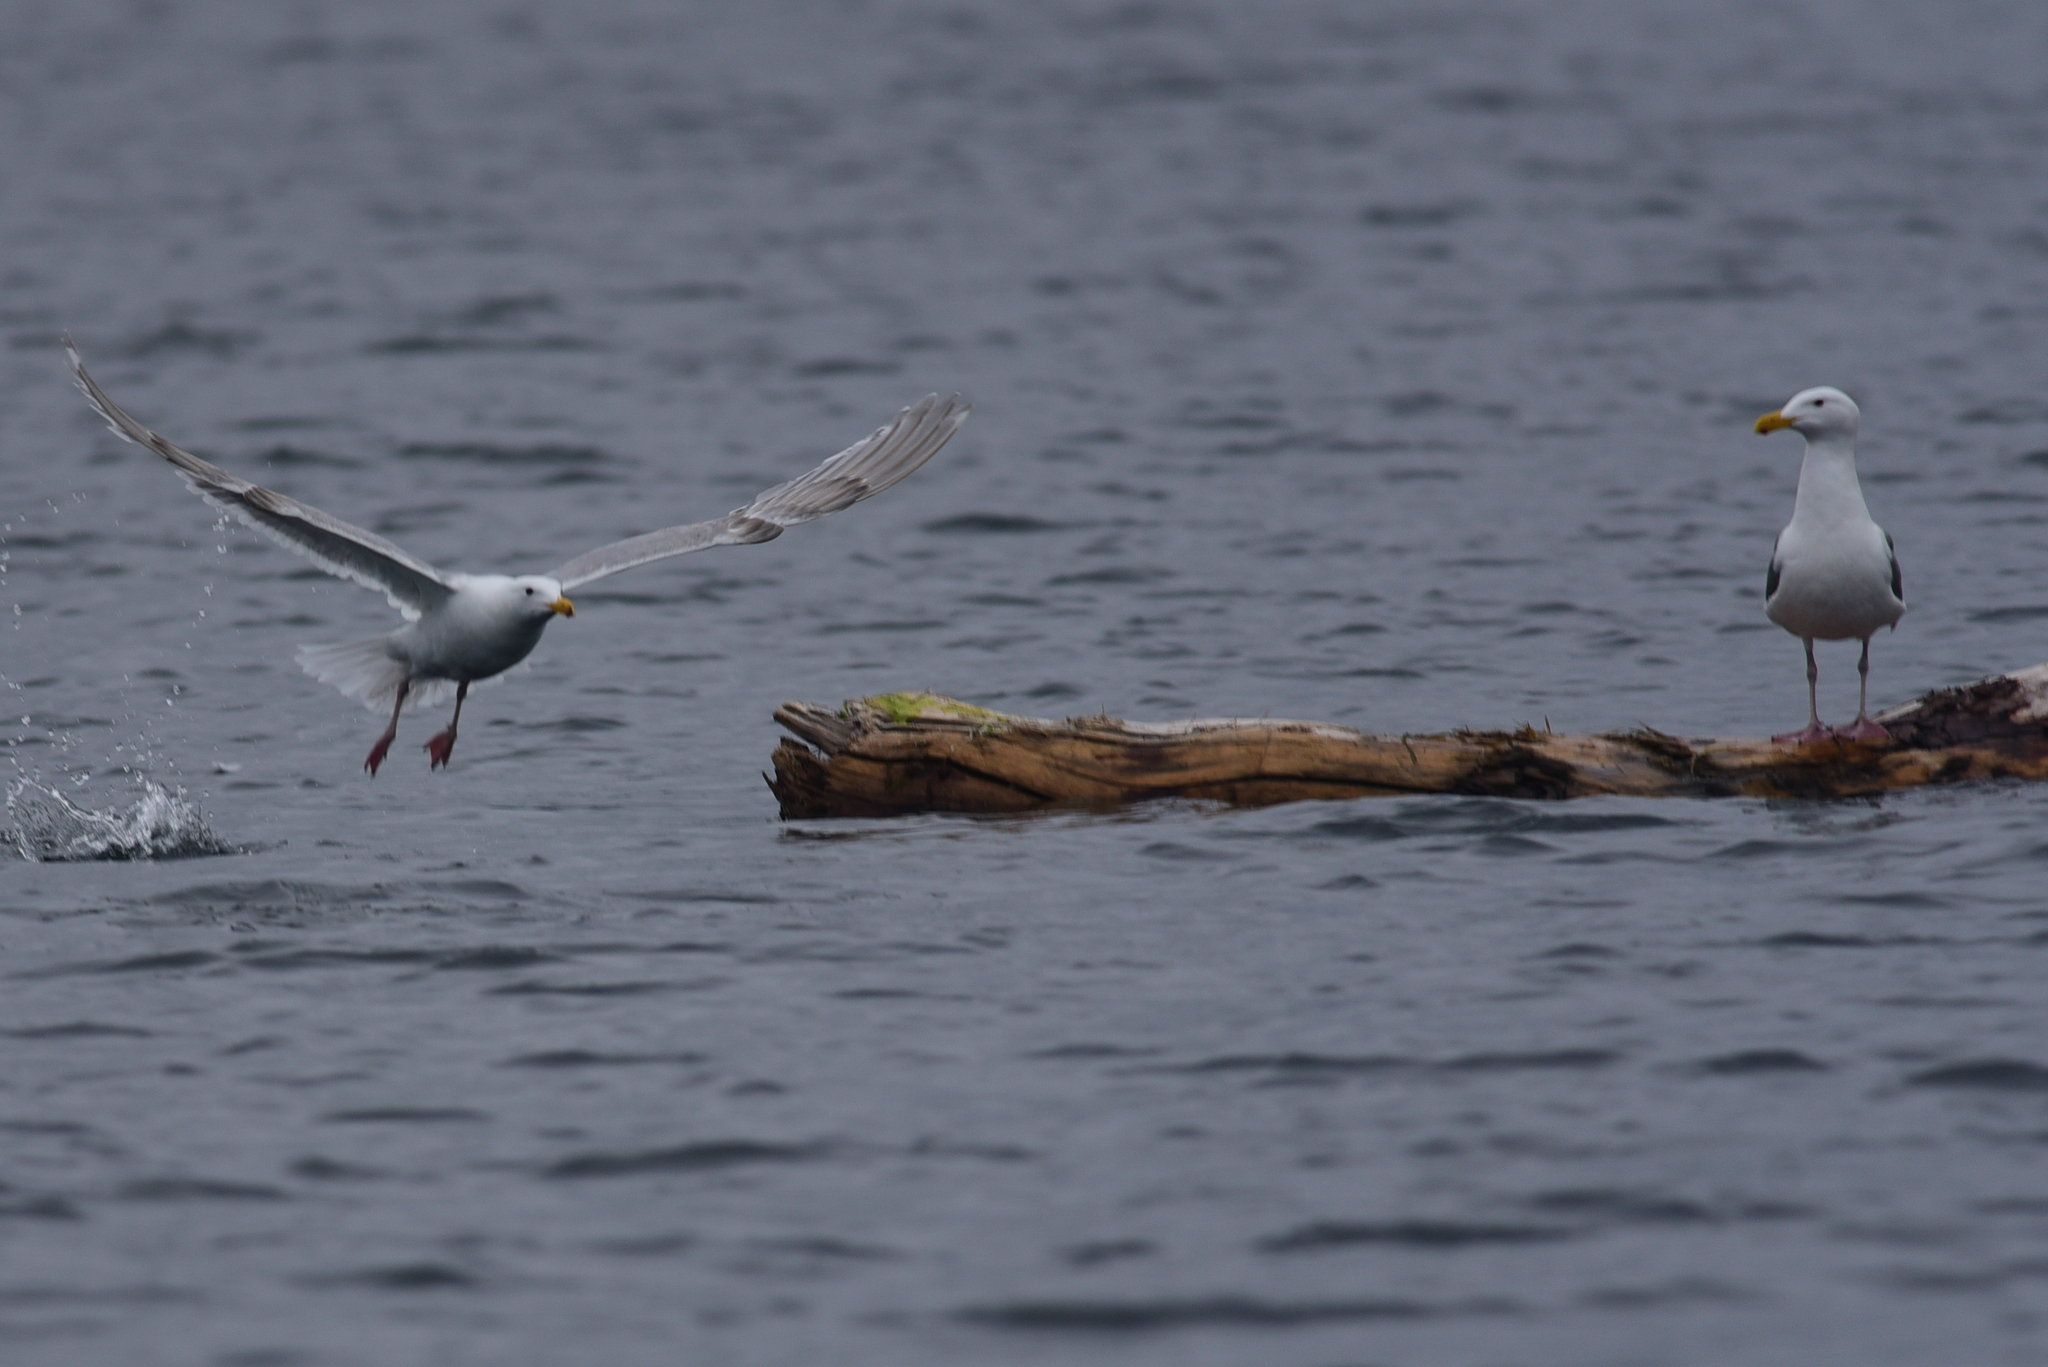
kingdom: Animalia
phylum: Chordata
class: Aves
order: Charadriiformes
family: Laridae
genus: Larus
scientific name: Larus glaucescens
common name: Glaucous-winged gull
